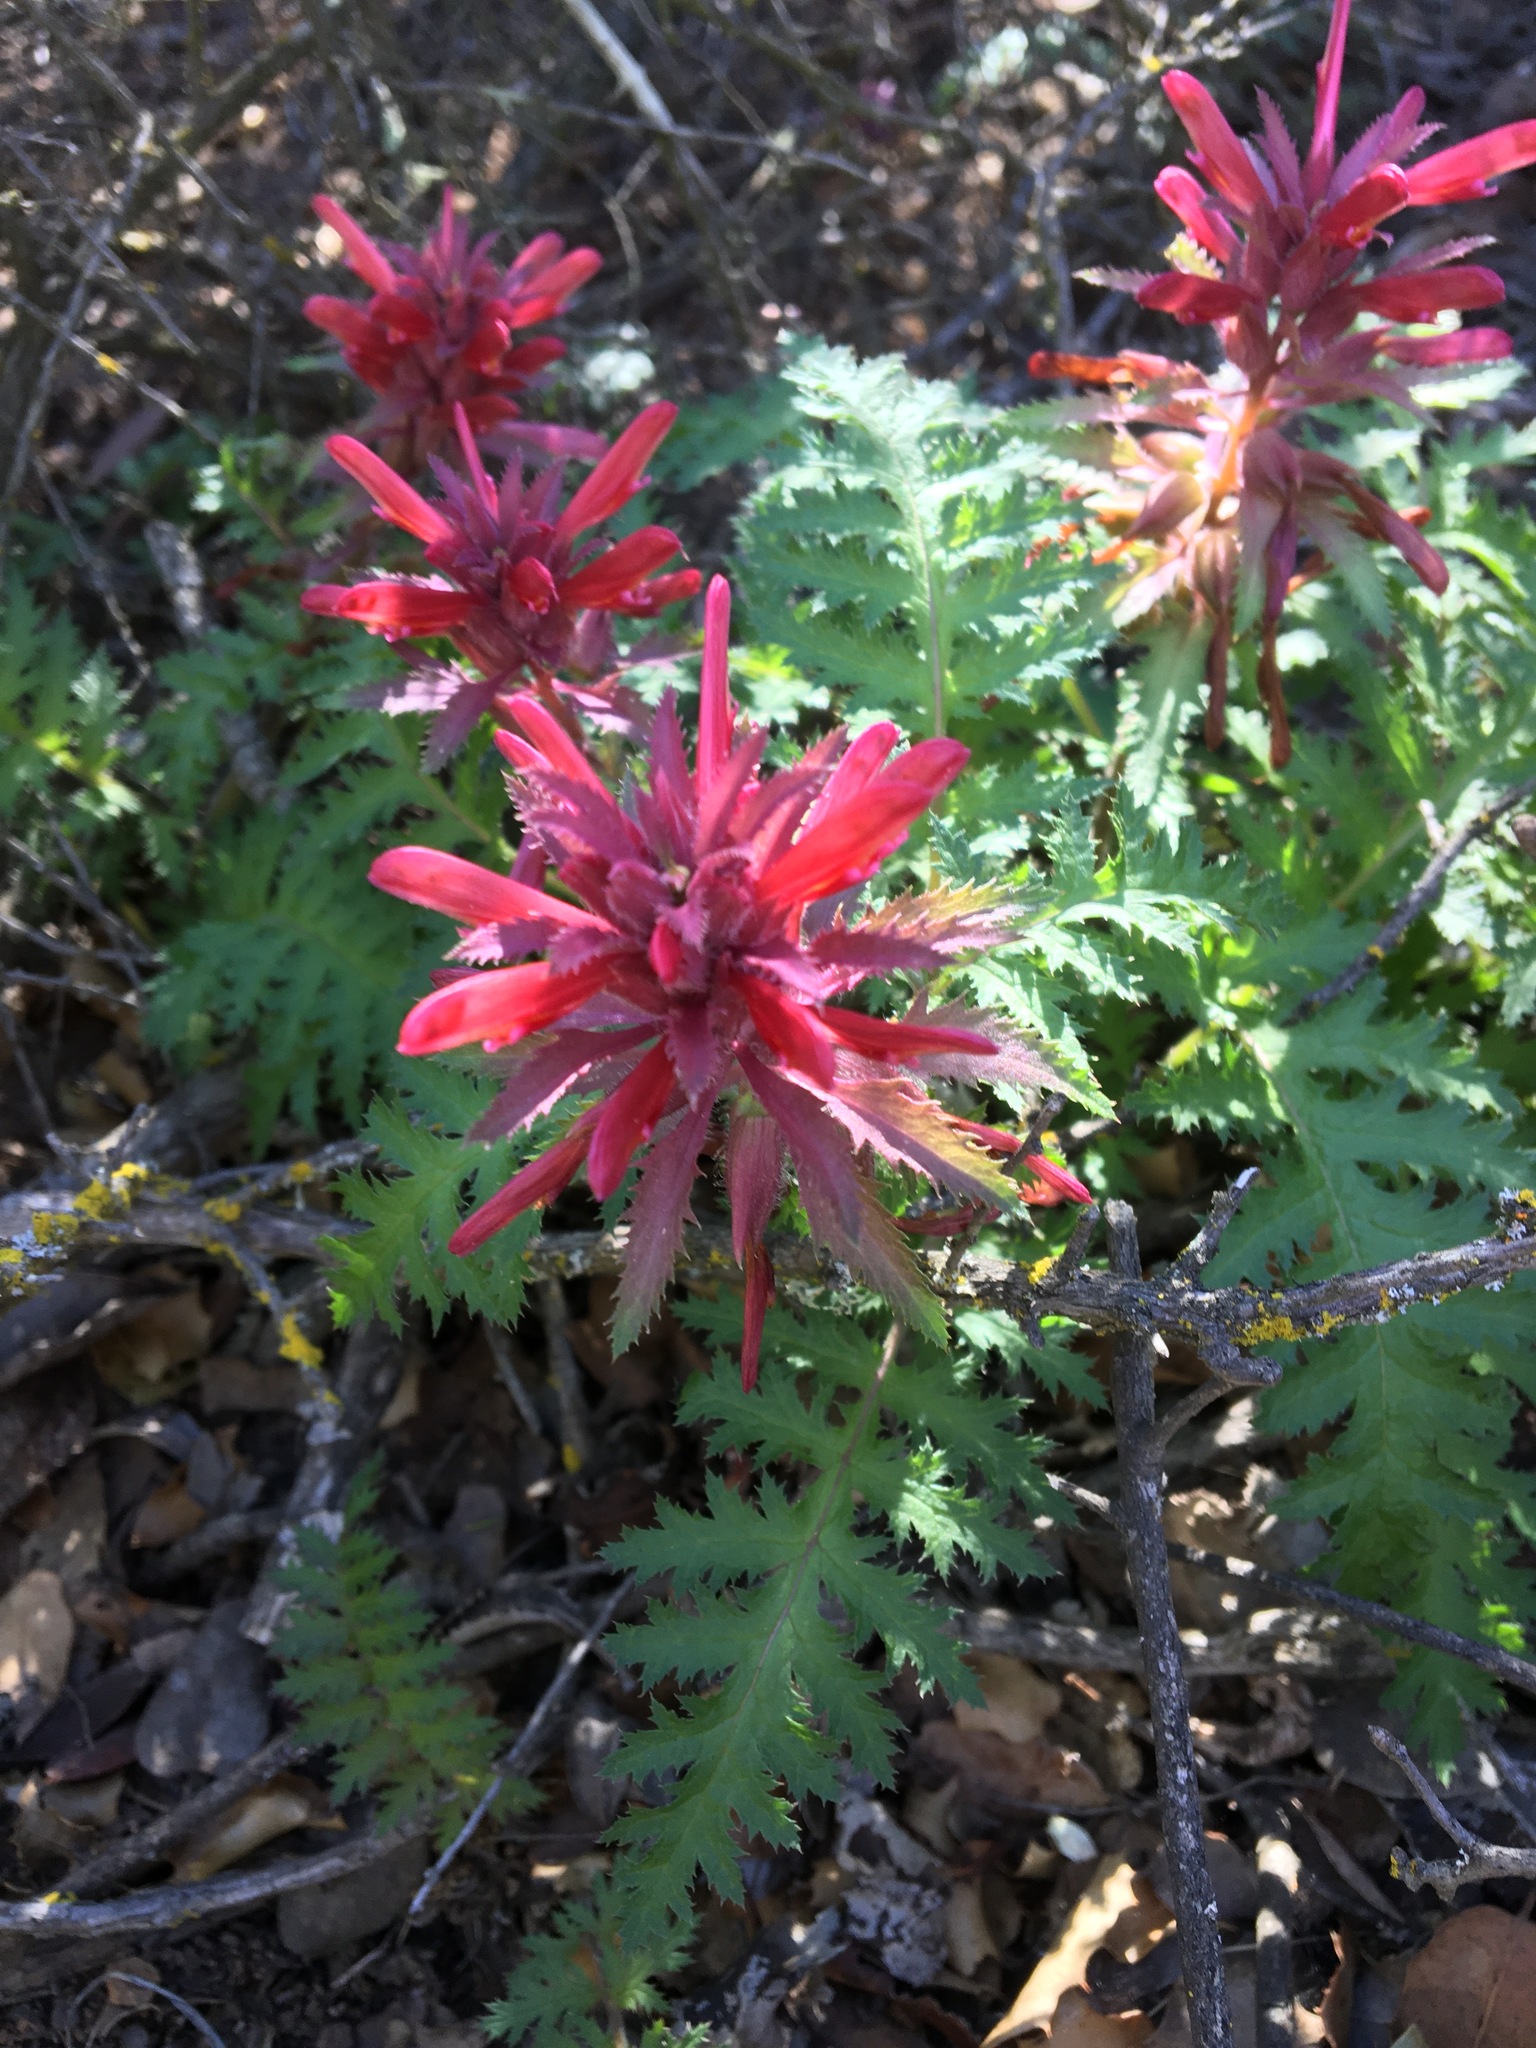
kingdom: Plantae
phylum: Tracheophyta
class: Magnoliopsida
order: Lamiales
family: Orobanchaceae
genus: Pedicularis
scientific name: Pedicularis densiflora
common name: Indian warrior
